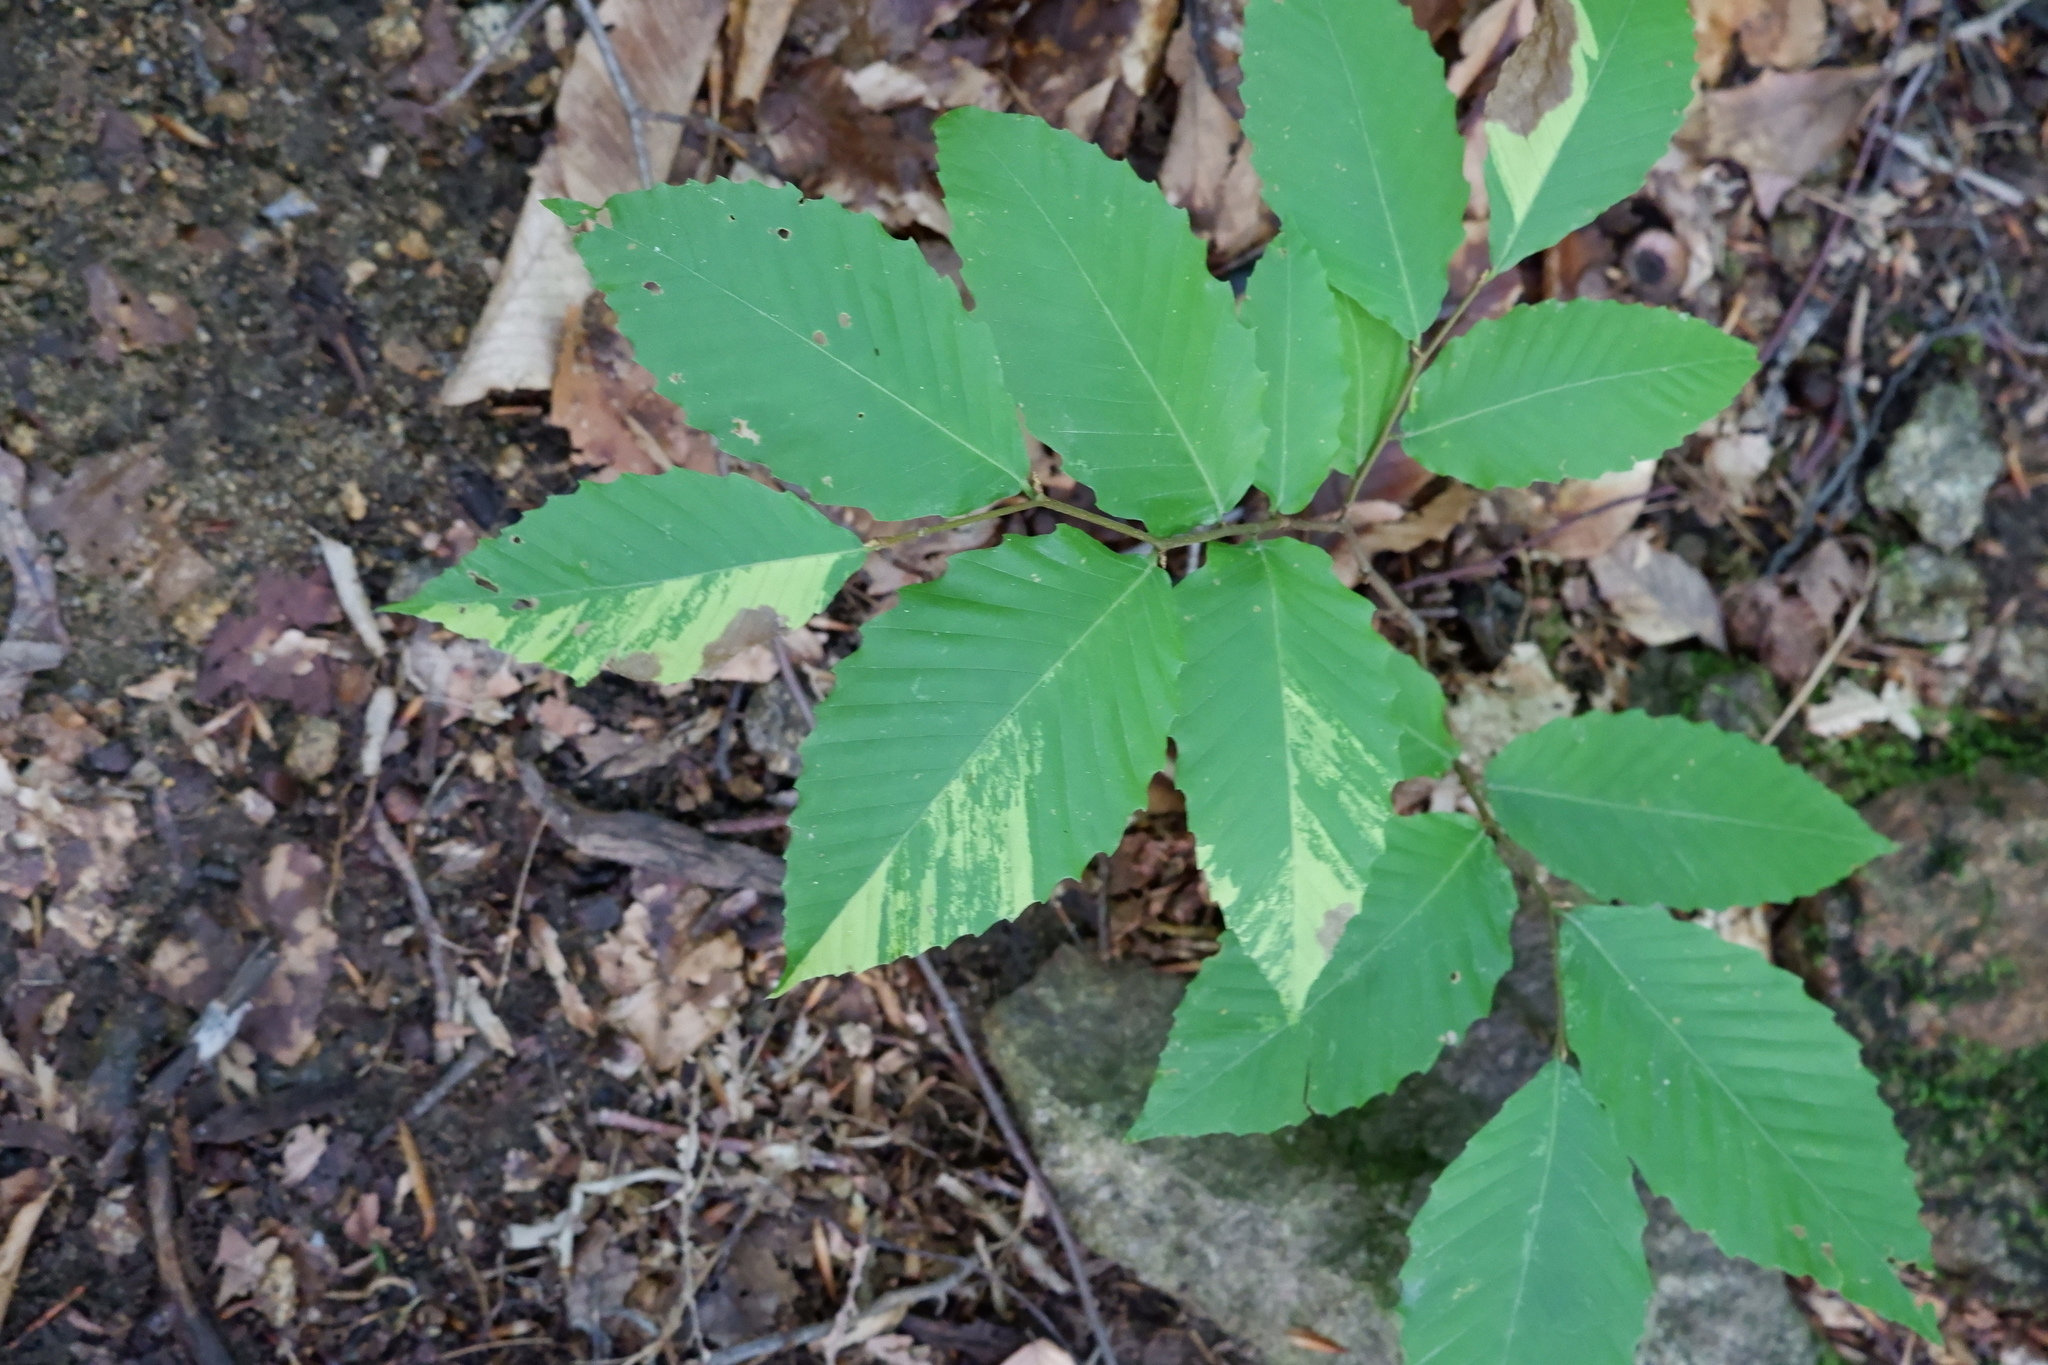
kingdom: Plantae
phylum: Tracheophyta
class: Magnoliopsida
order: Fagales
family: Fagaceae
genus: Fagus
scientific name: Fagus grandifolia
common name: American beech
